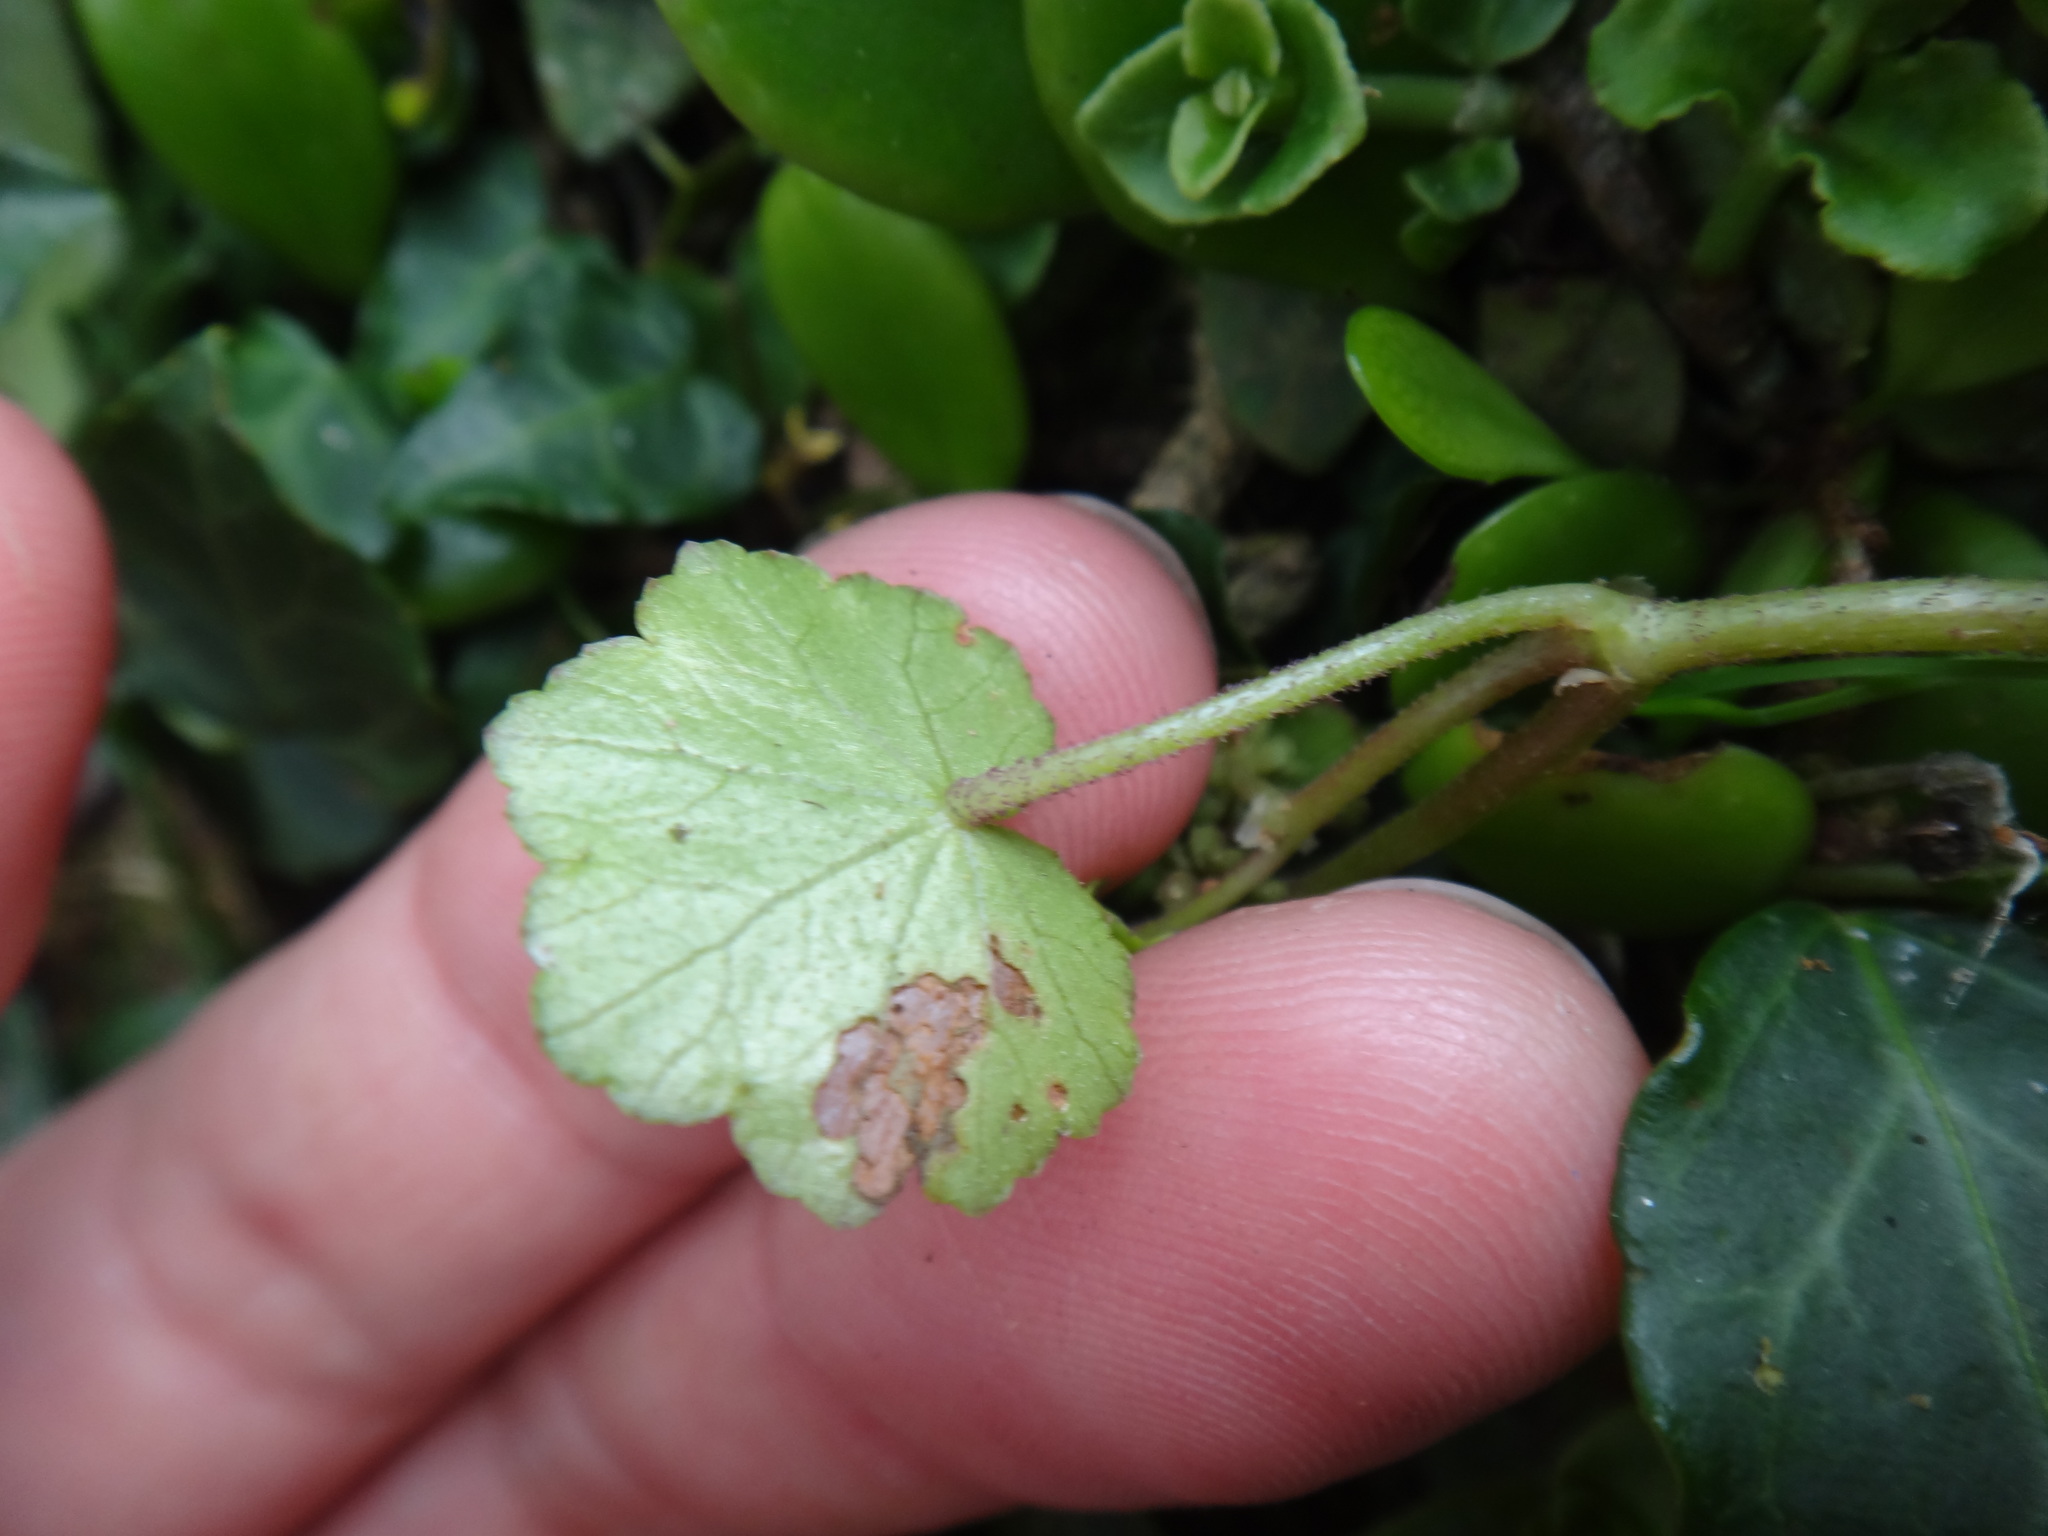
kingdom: Plantae
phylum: Tracheophyta
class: Magnoliopsida
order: Apiales
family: Araliaceae
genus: Hydrocotyle
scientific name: Hydrocotyle nepalensis
